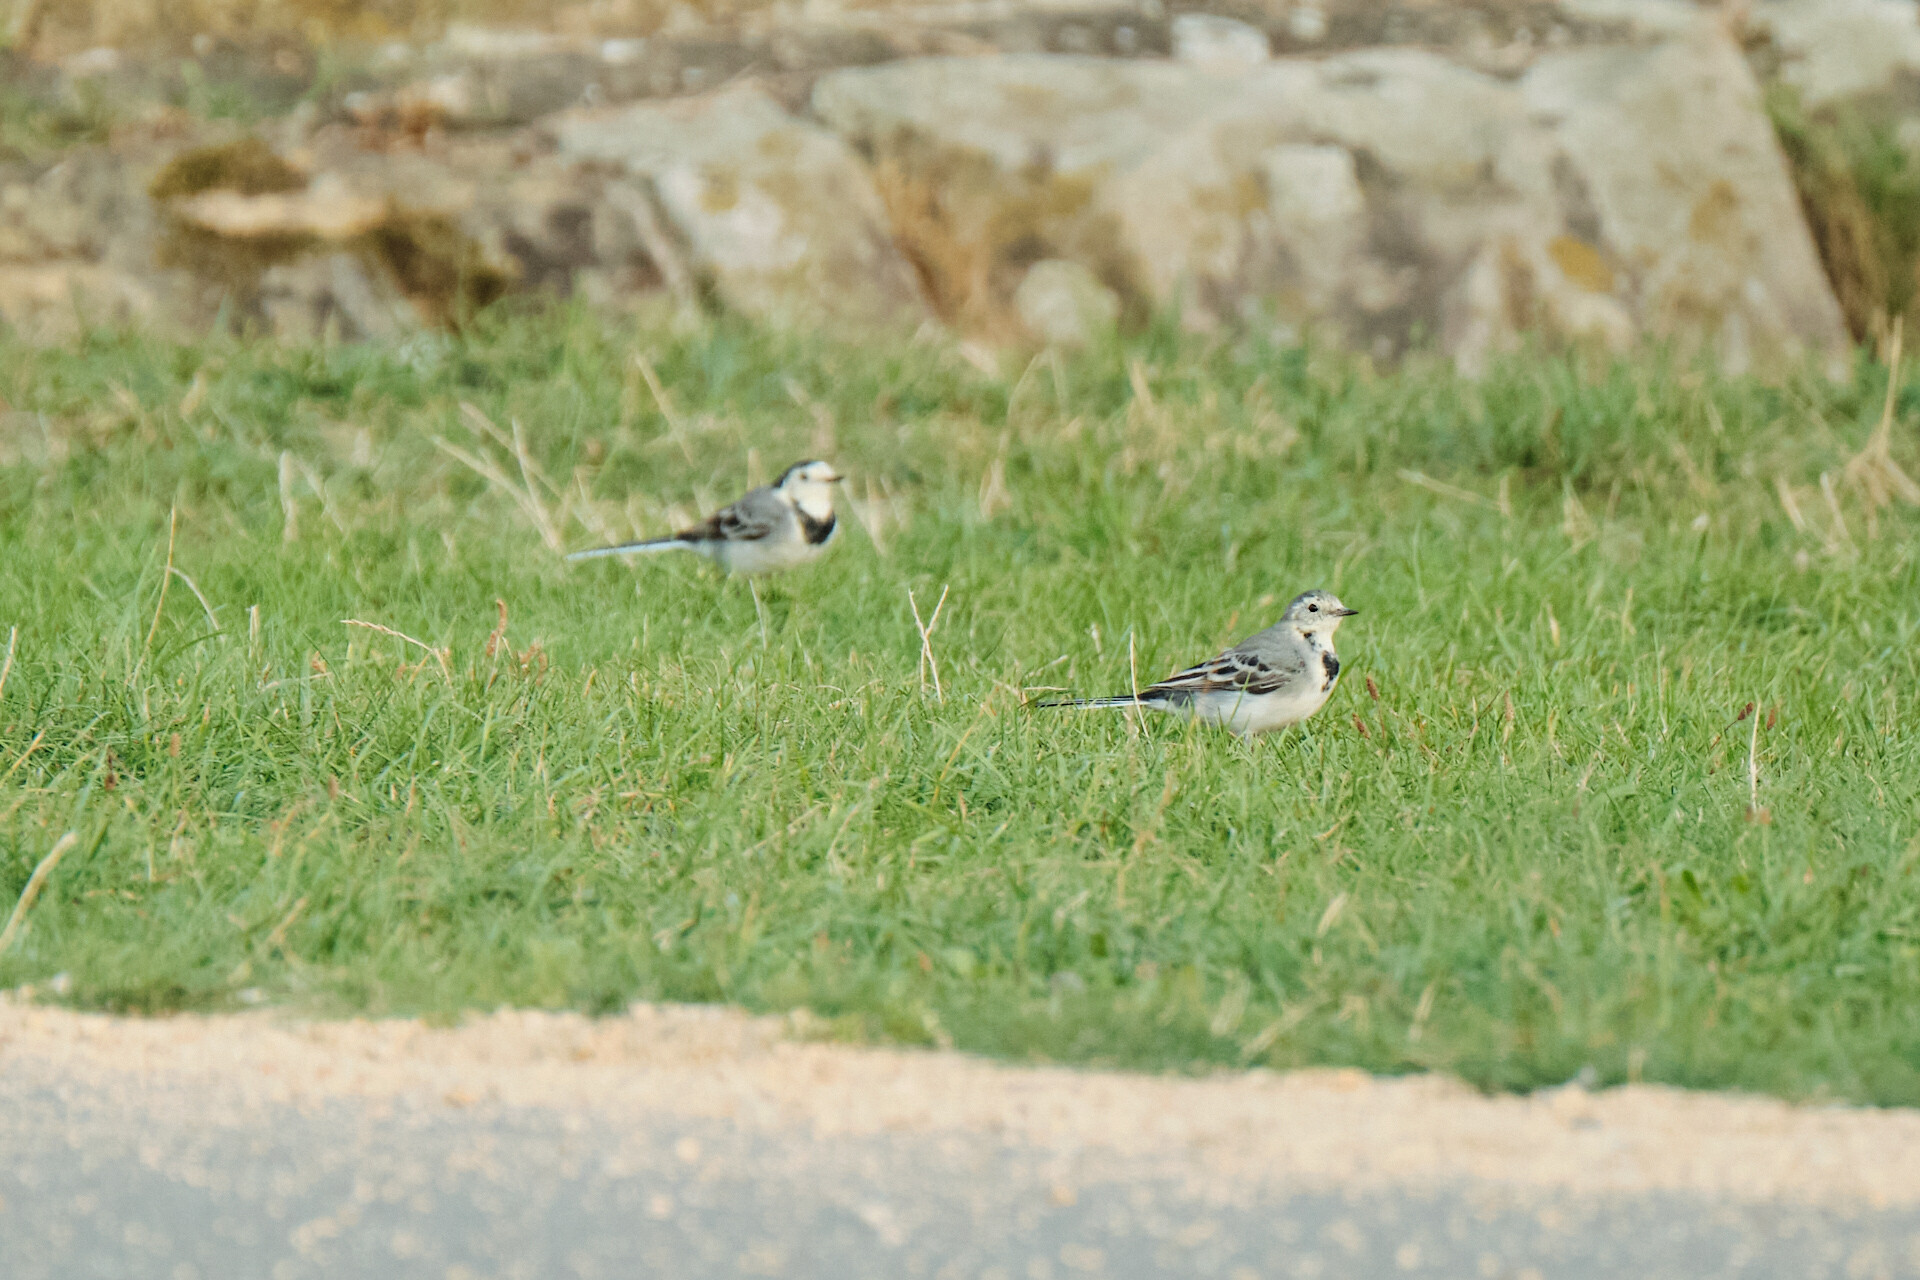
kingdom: Animalia
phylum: Chordata
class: Aves
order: Passeriformes
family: Motacillidae
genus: Motacilla
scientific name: Motacilla alba
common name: White wagtail
